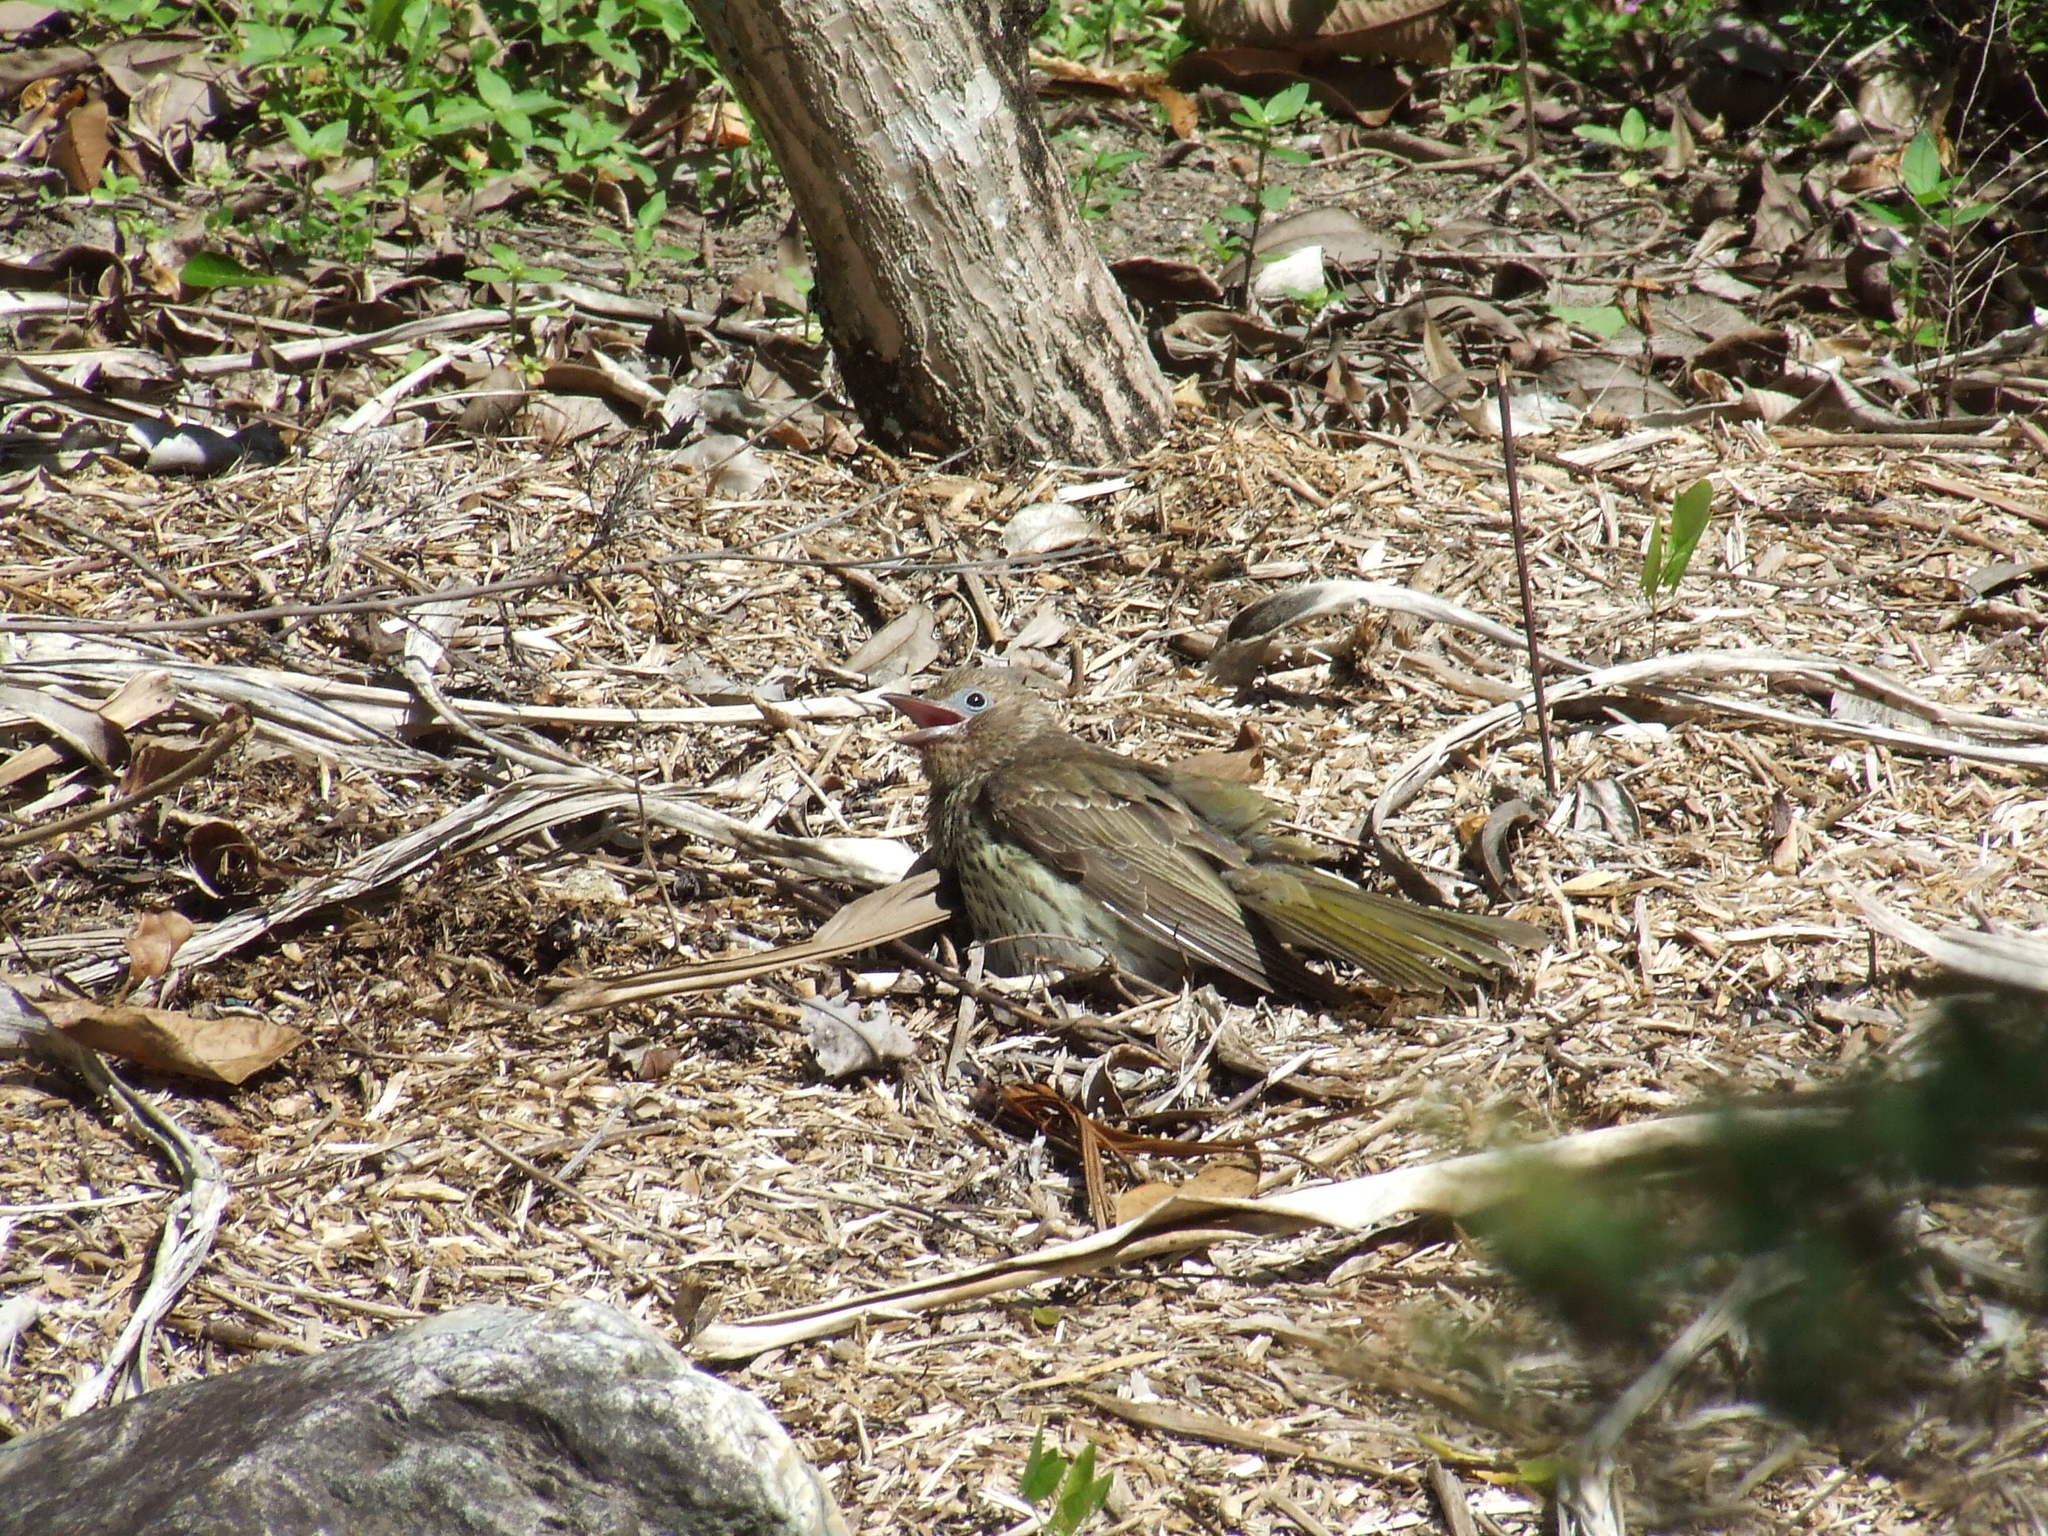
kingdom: Animalia
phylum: Chordata
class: Aves
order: Passeriformes
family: Oriolidae
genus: Sphecotheres
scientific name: Sphecotheres vieilloti
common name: Australasian figbird
